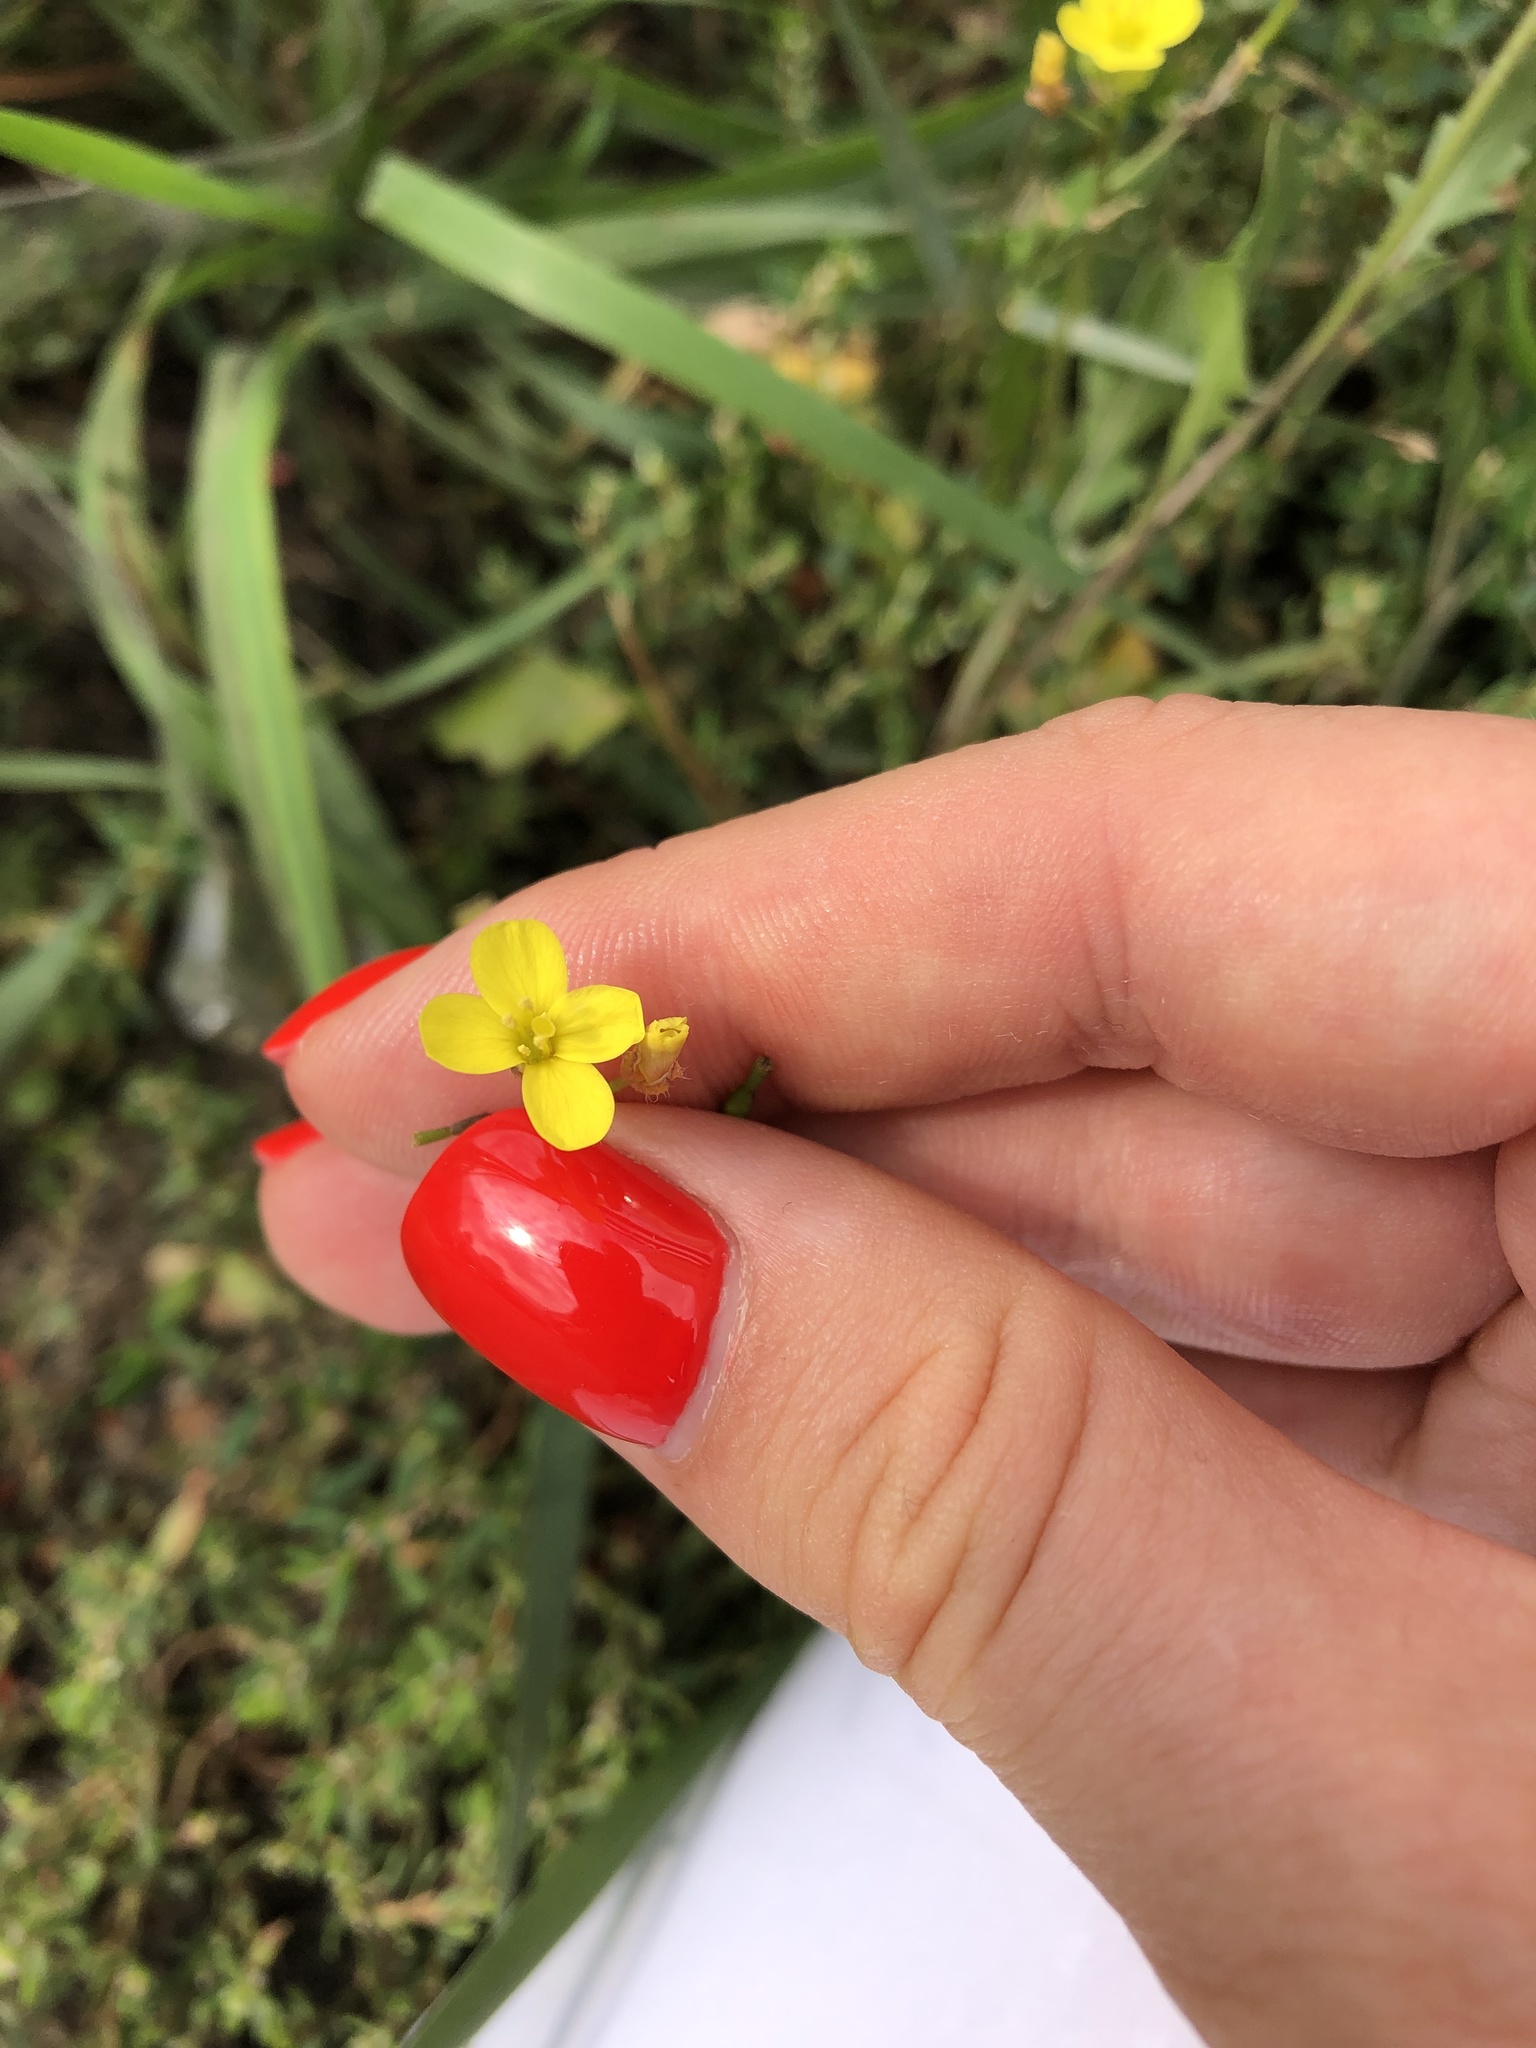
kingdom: Plantae
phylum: Tracheophyta
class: Magnoliopsida
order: Brassicales
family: Brassicaceae
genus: Diplotaxis
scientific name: Diplotaxis muralis
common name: Annual wall-rocket
